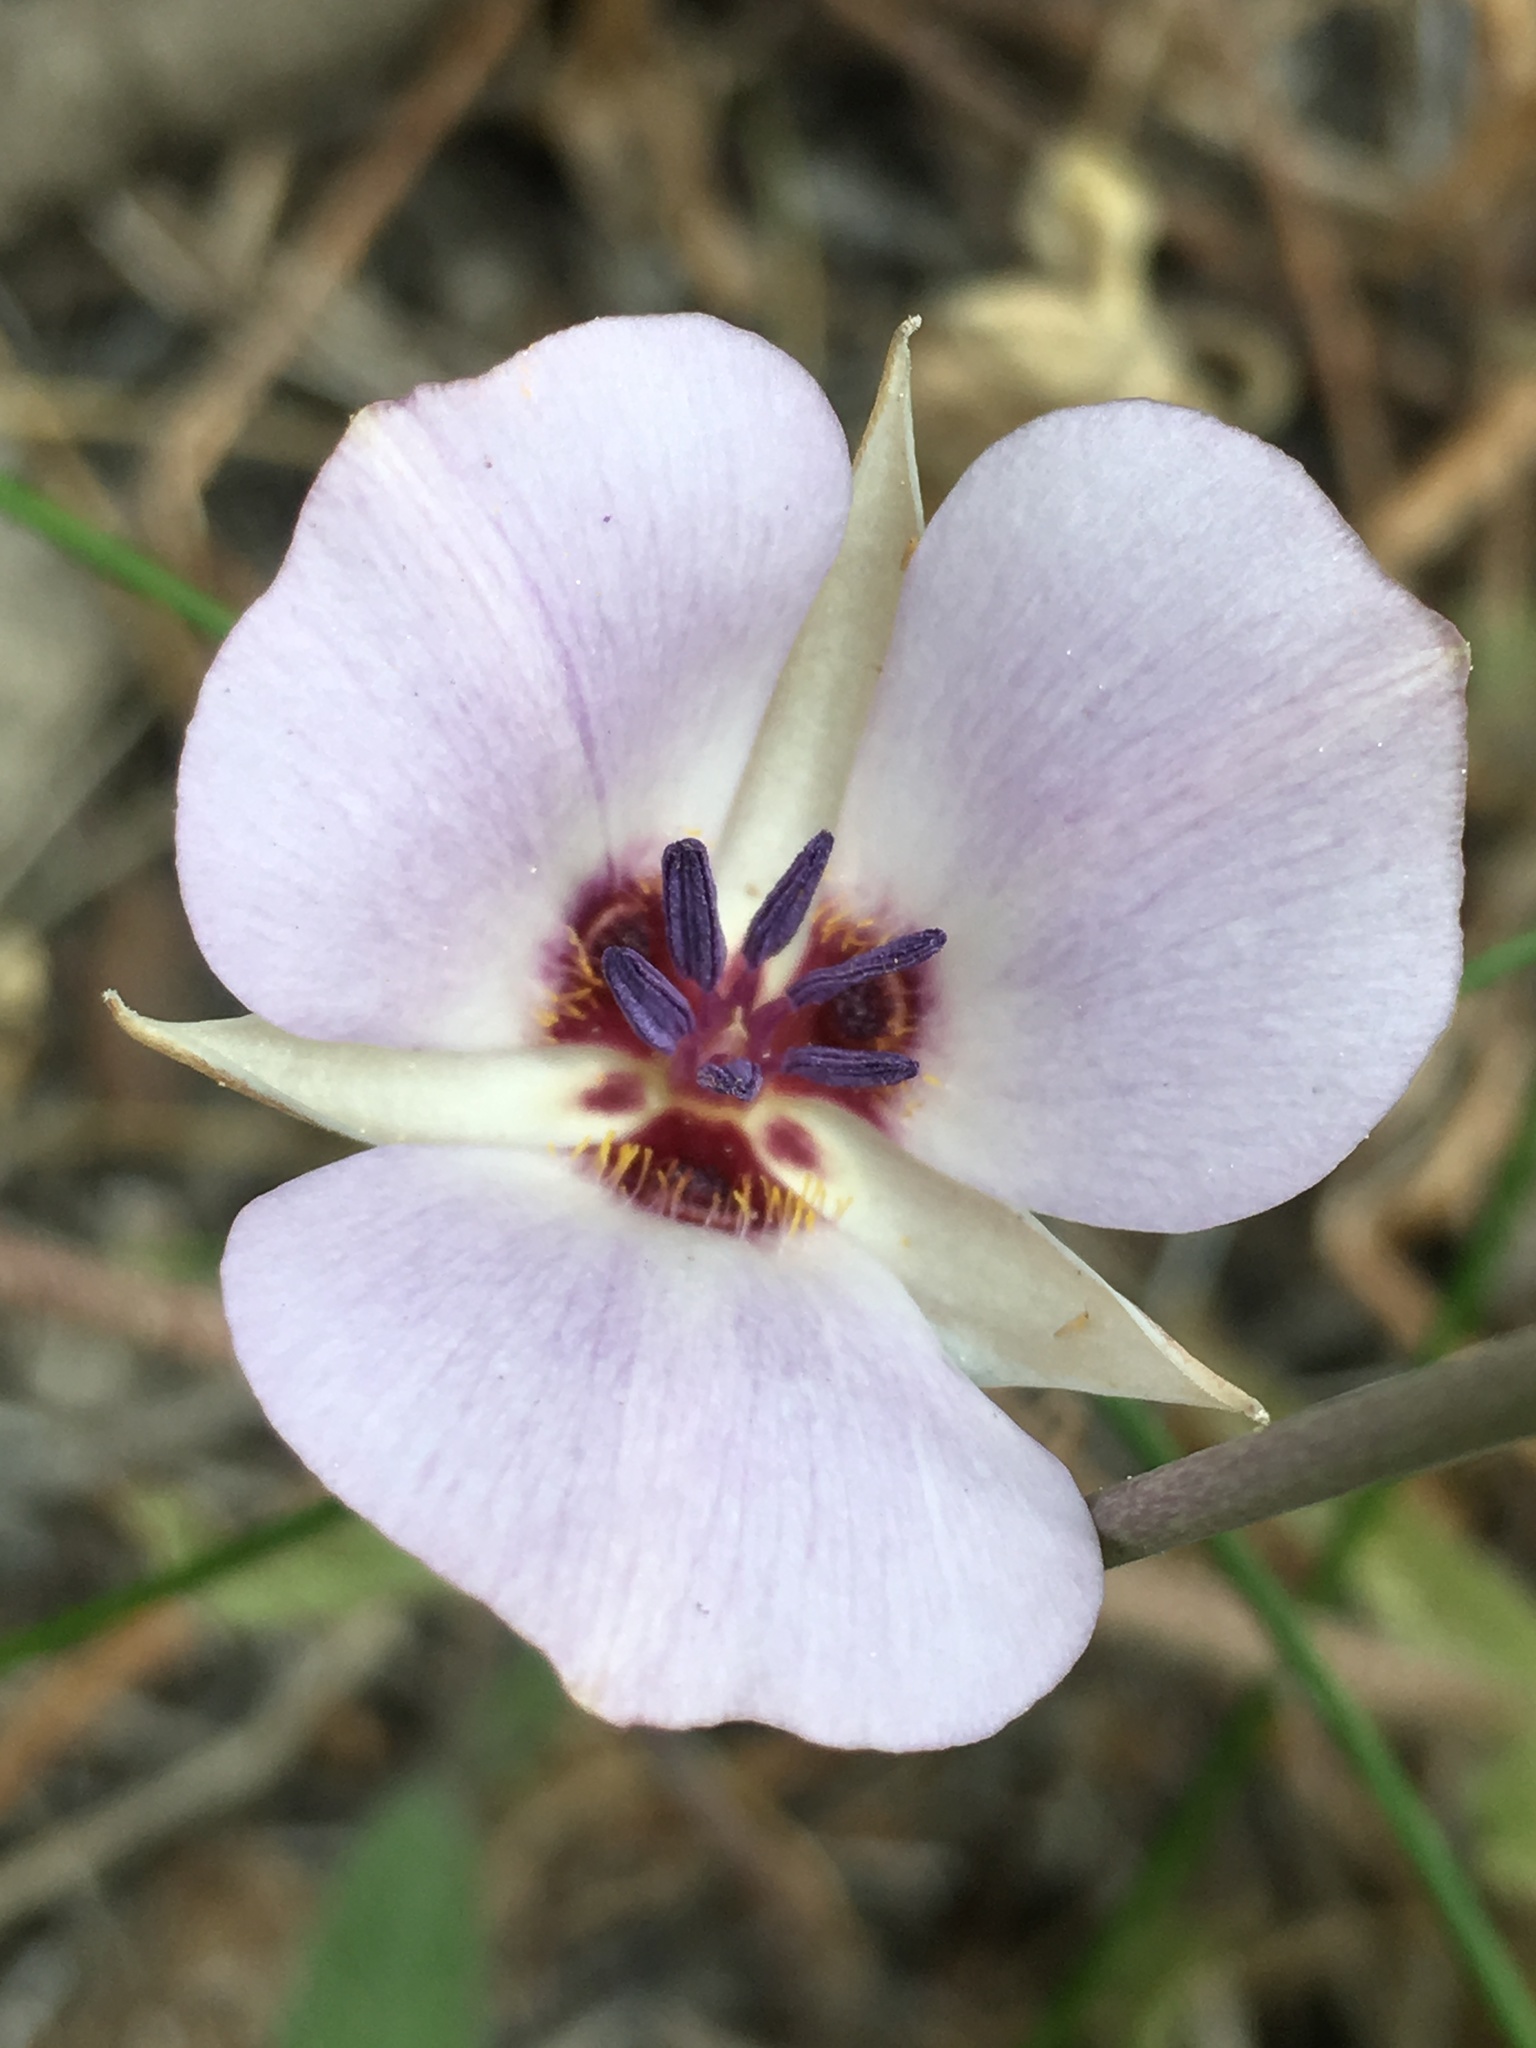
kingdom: Plantae
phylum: Tracheophyta
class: Liliopsida
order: Liliales
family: Liliaceae
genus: Calochortus
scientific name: Calochortus invenustus
